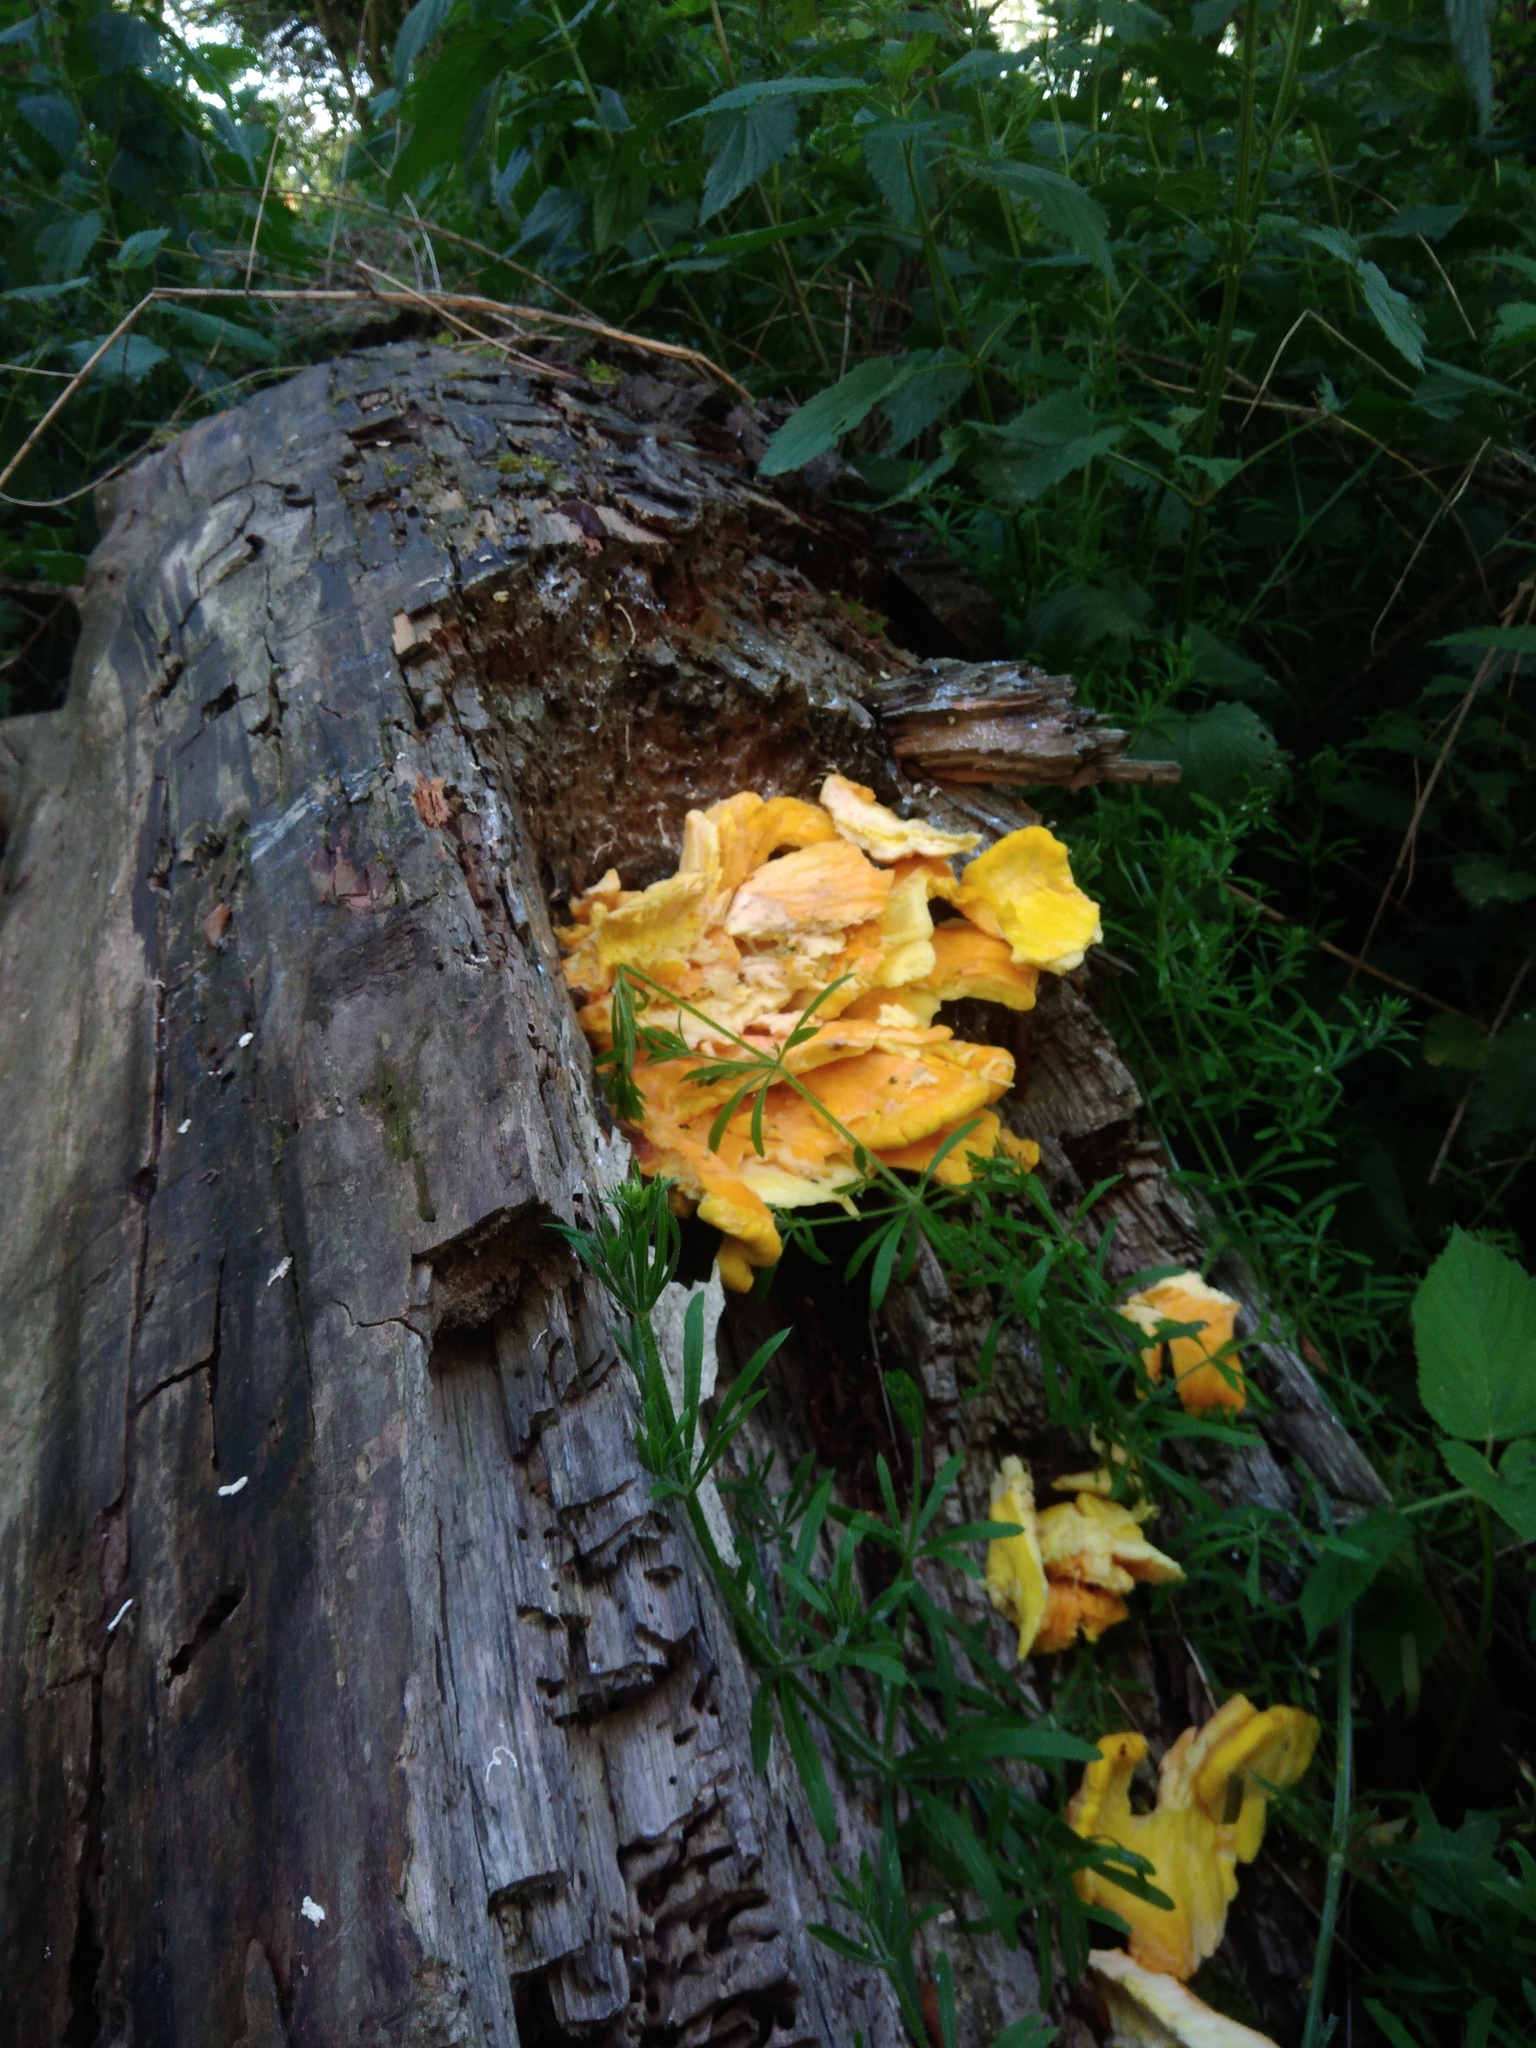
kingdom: Fungi
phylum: Basidiomycota
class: Agaricomycetes
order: Polyporales
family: Laetiporaceae
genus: Laetiporus
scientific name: Laetiporus sulphureus
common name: Chicken of the woods
